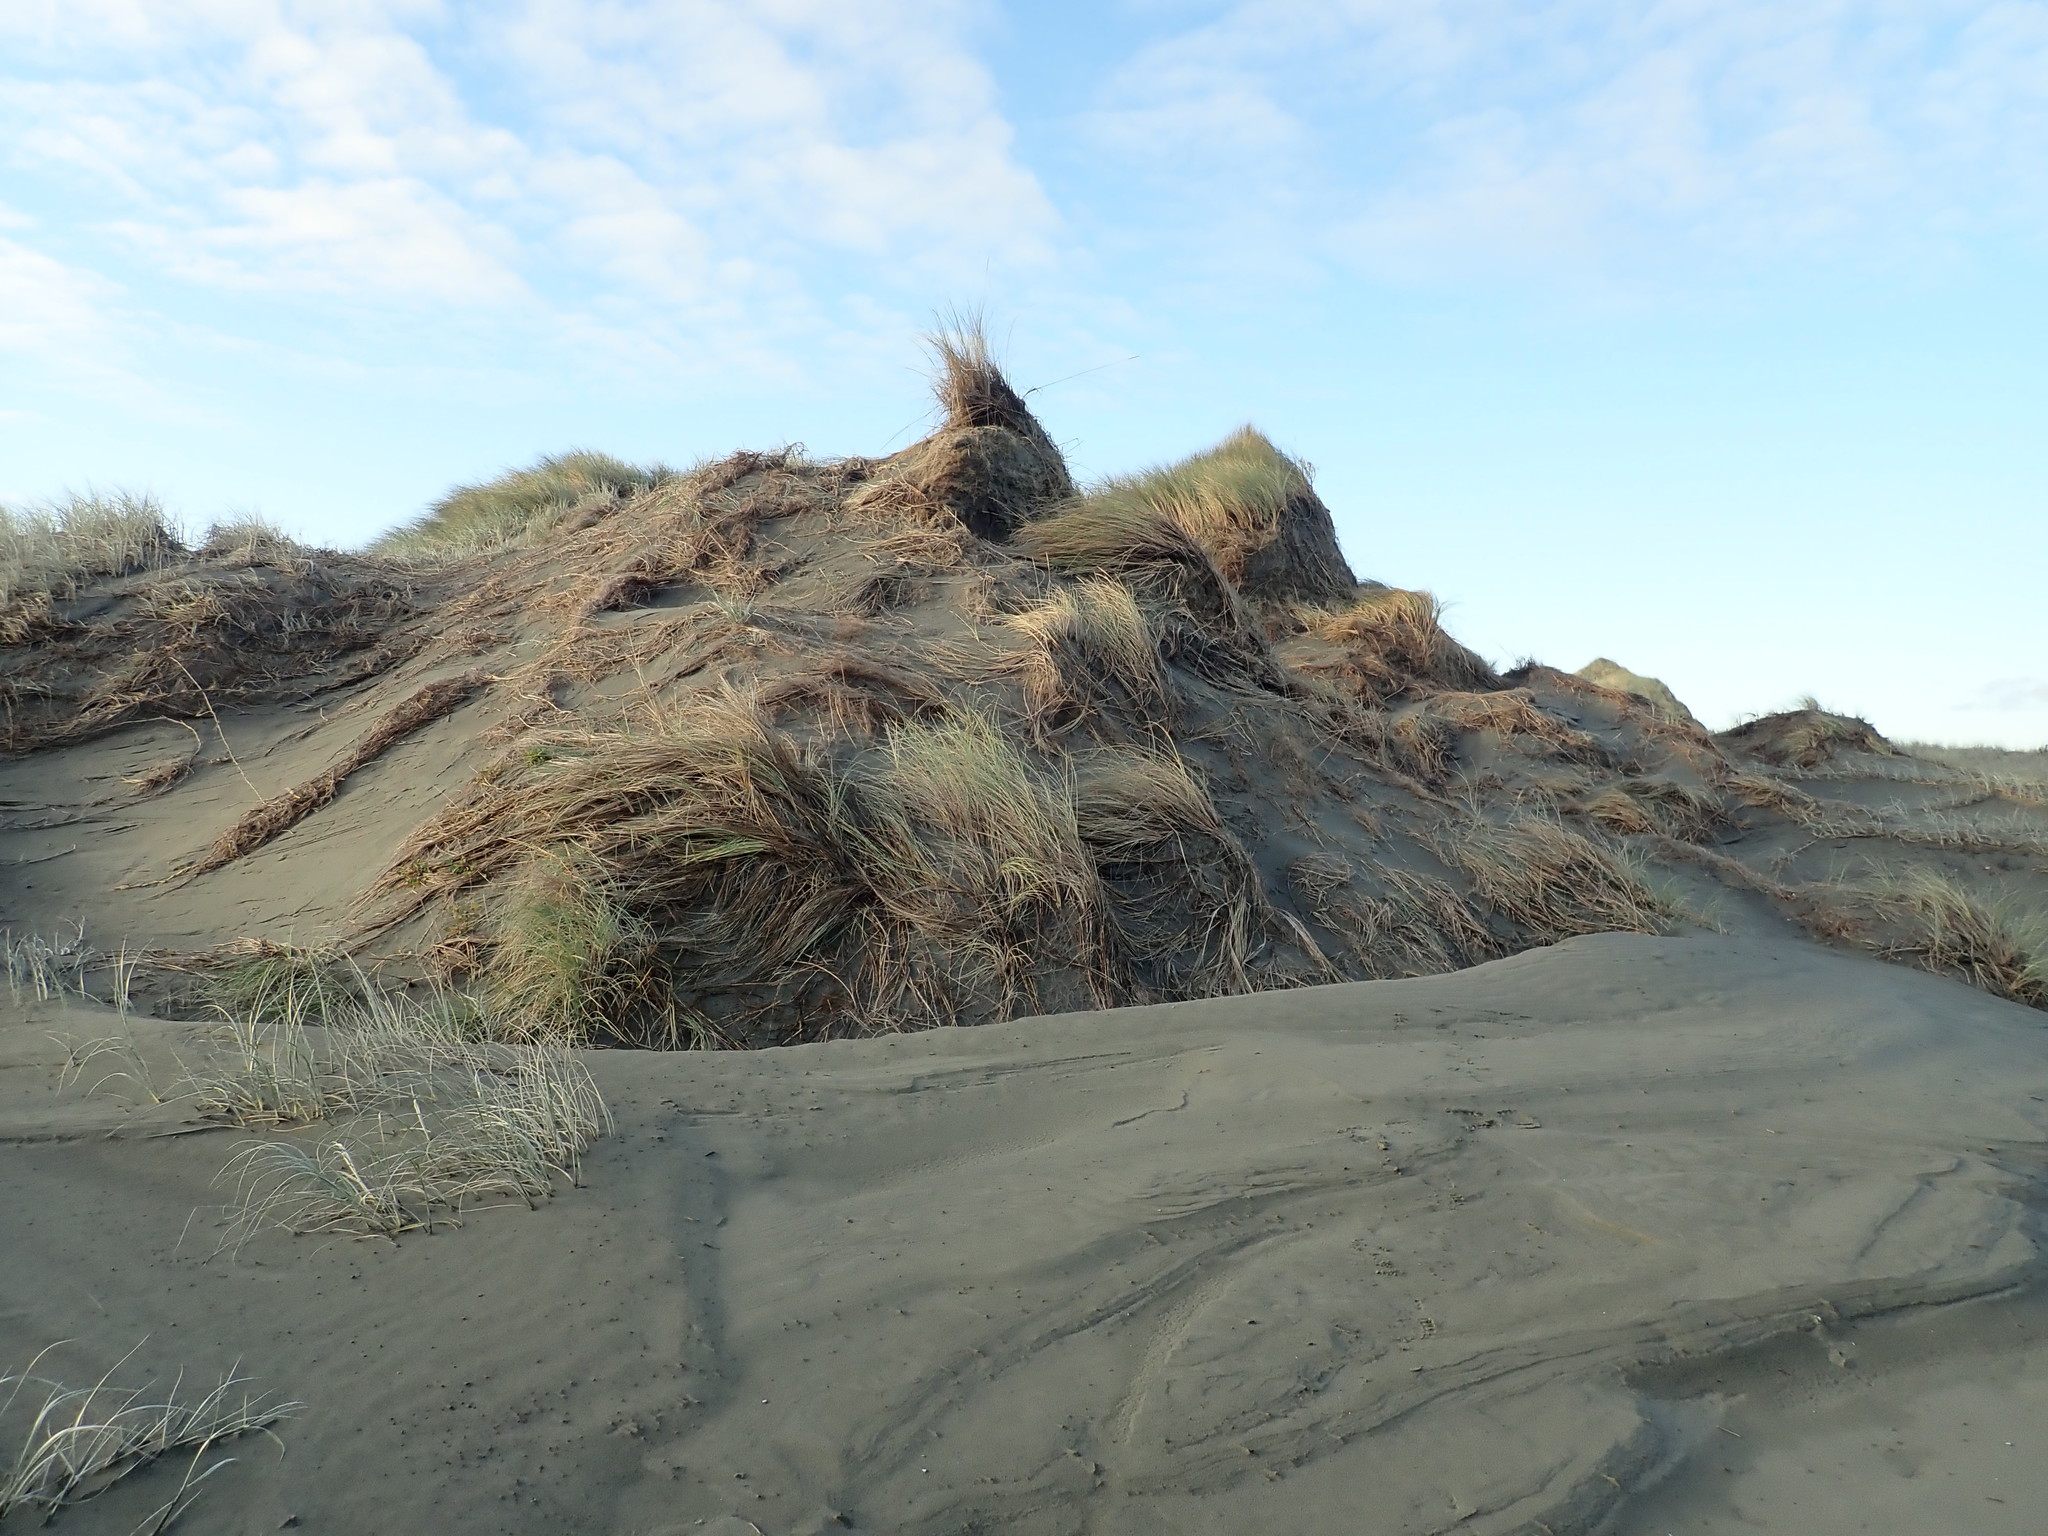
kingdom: Plantae
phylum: Tracheophyta
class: Liliopsida
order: Poales
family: Poaceae
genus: Calamagrostis
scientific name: Calamagrostis arenaria
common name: European beachgrass
